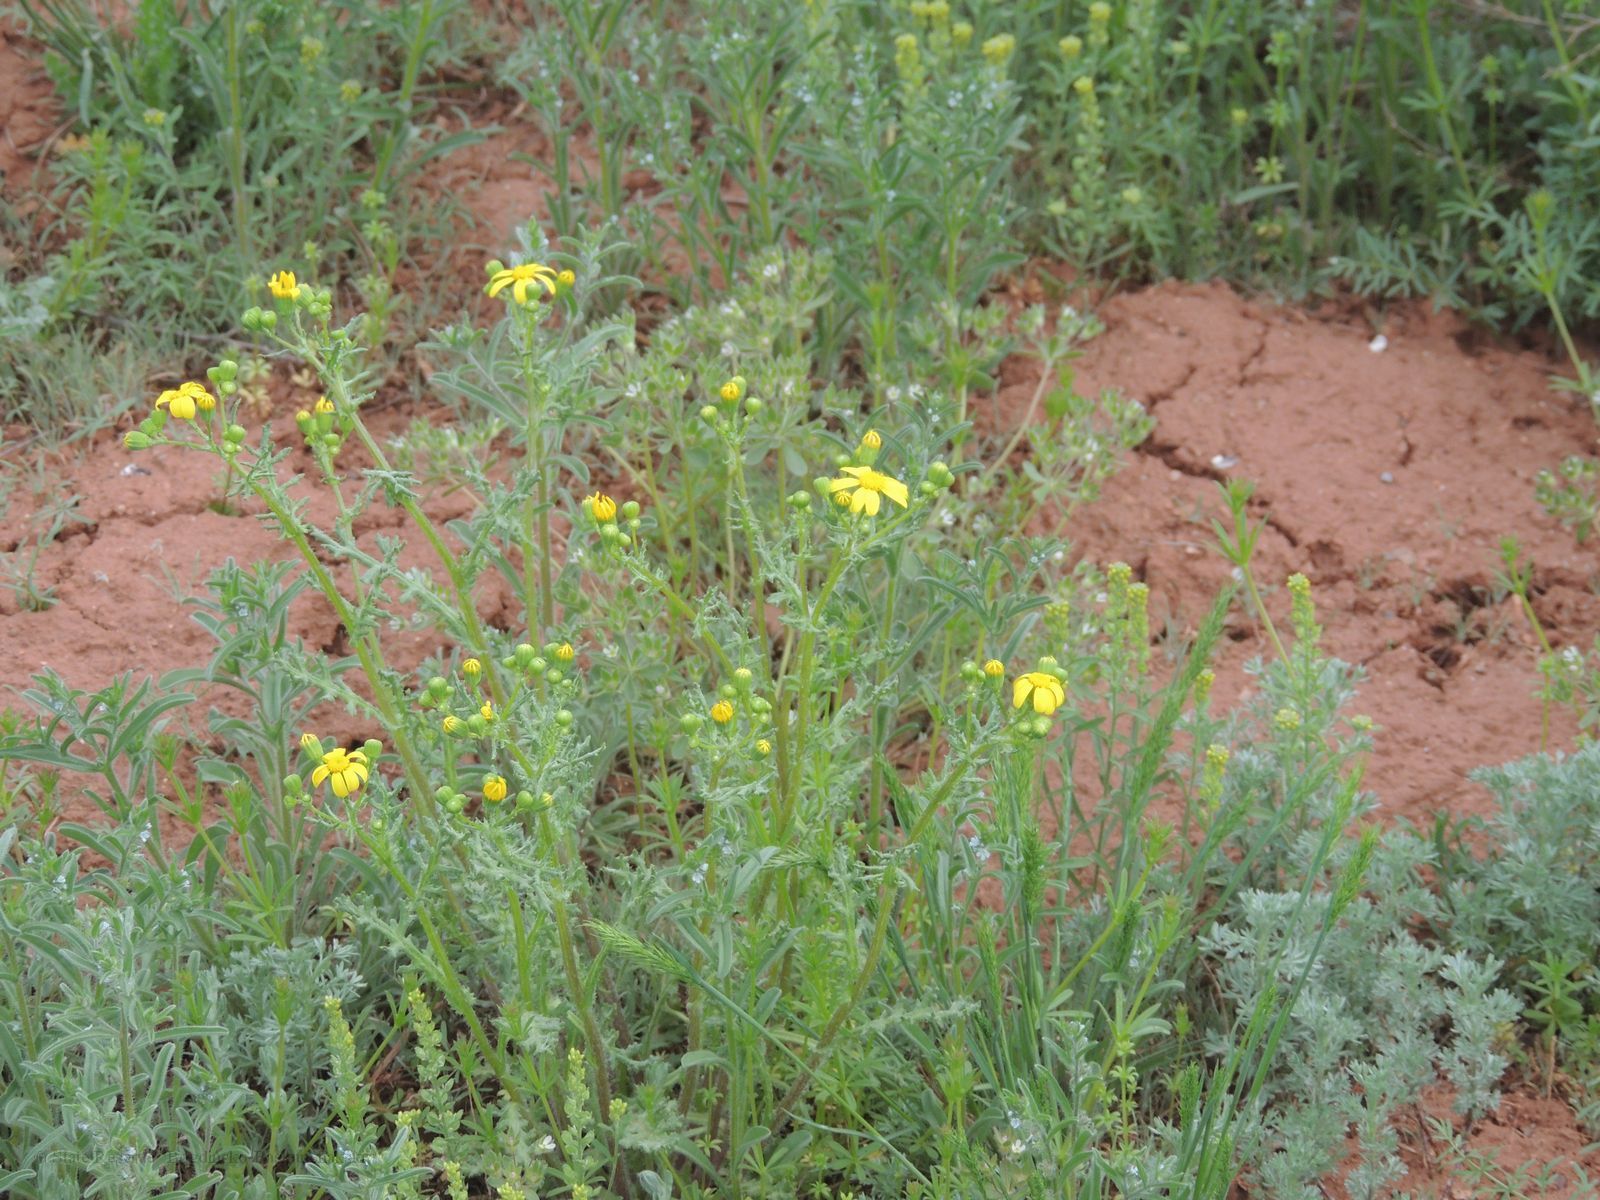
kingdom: Plantae
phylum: Tracheophyta
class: Magnoliopsida
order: Asterales
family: Asteraceae
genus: Senecio
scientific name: Senecio vernalis
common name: Eastern groundsel
